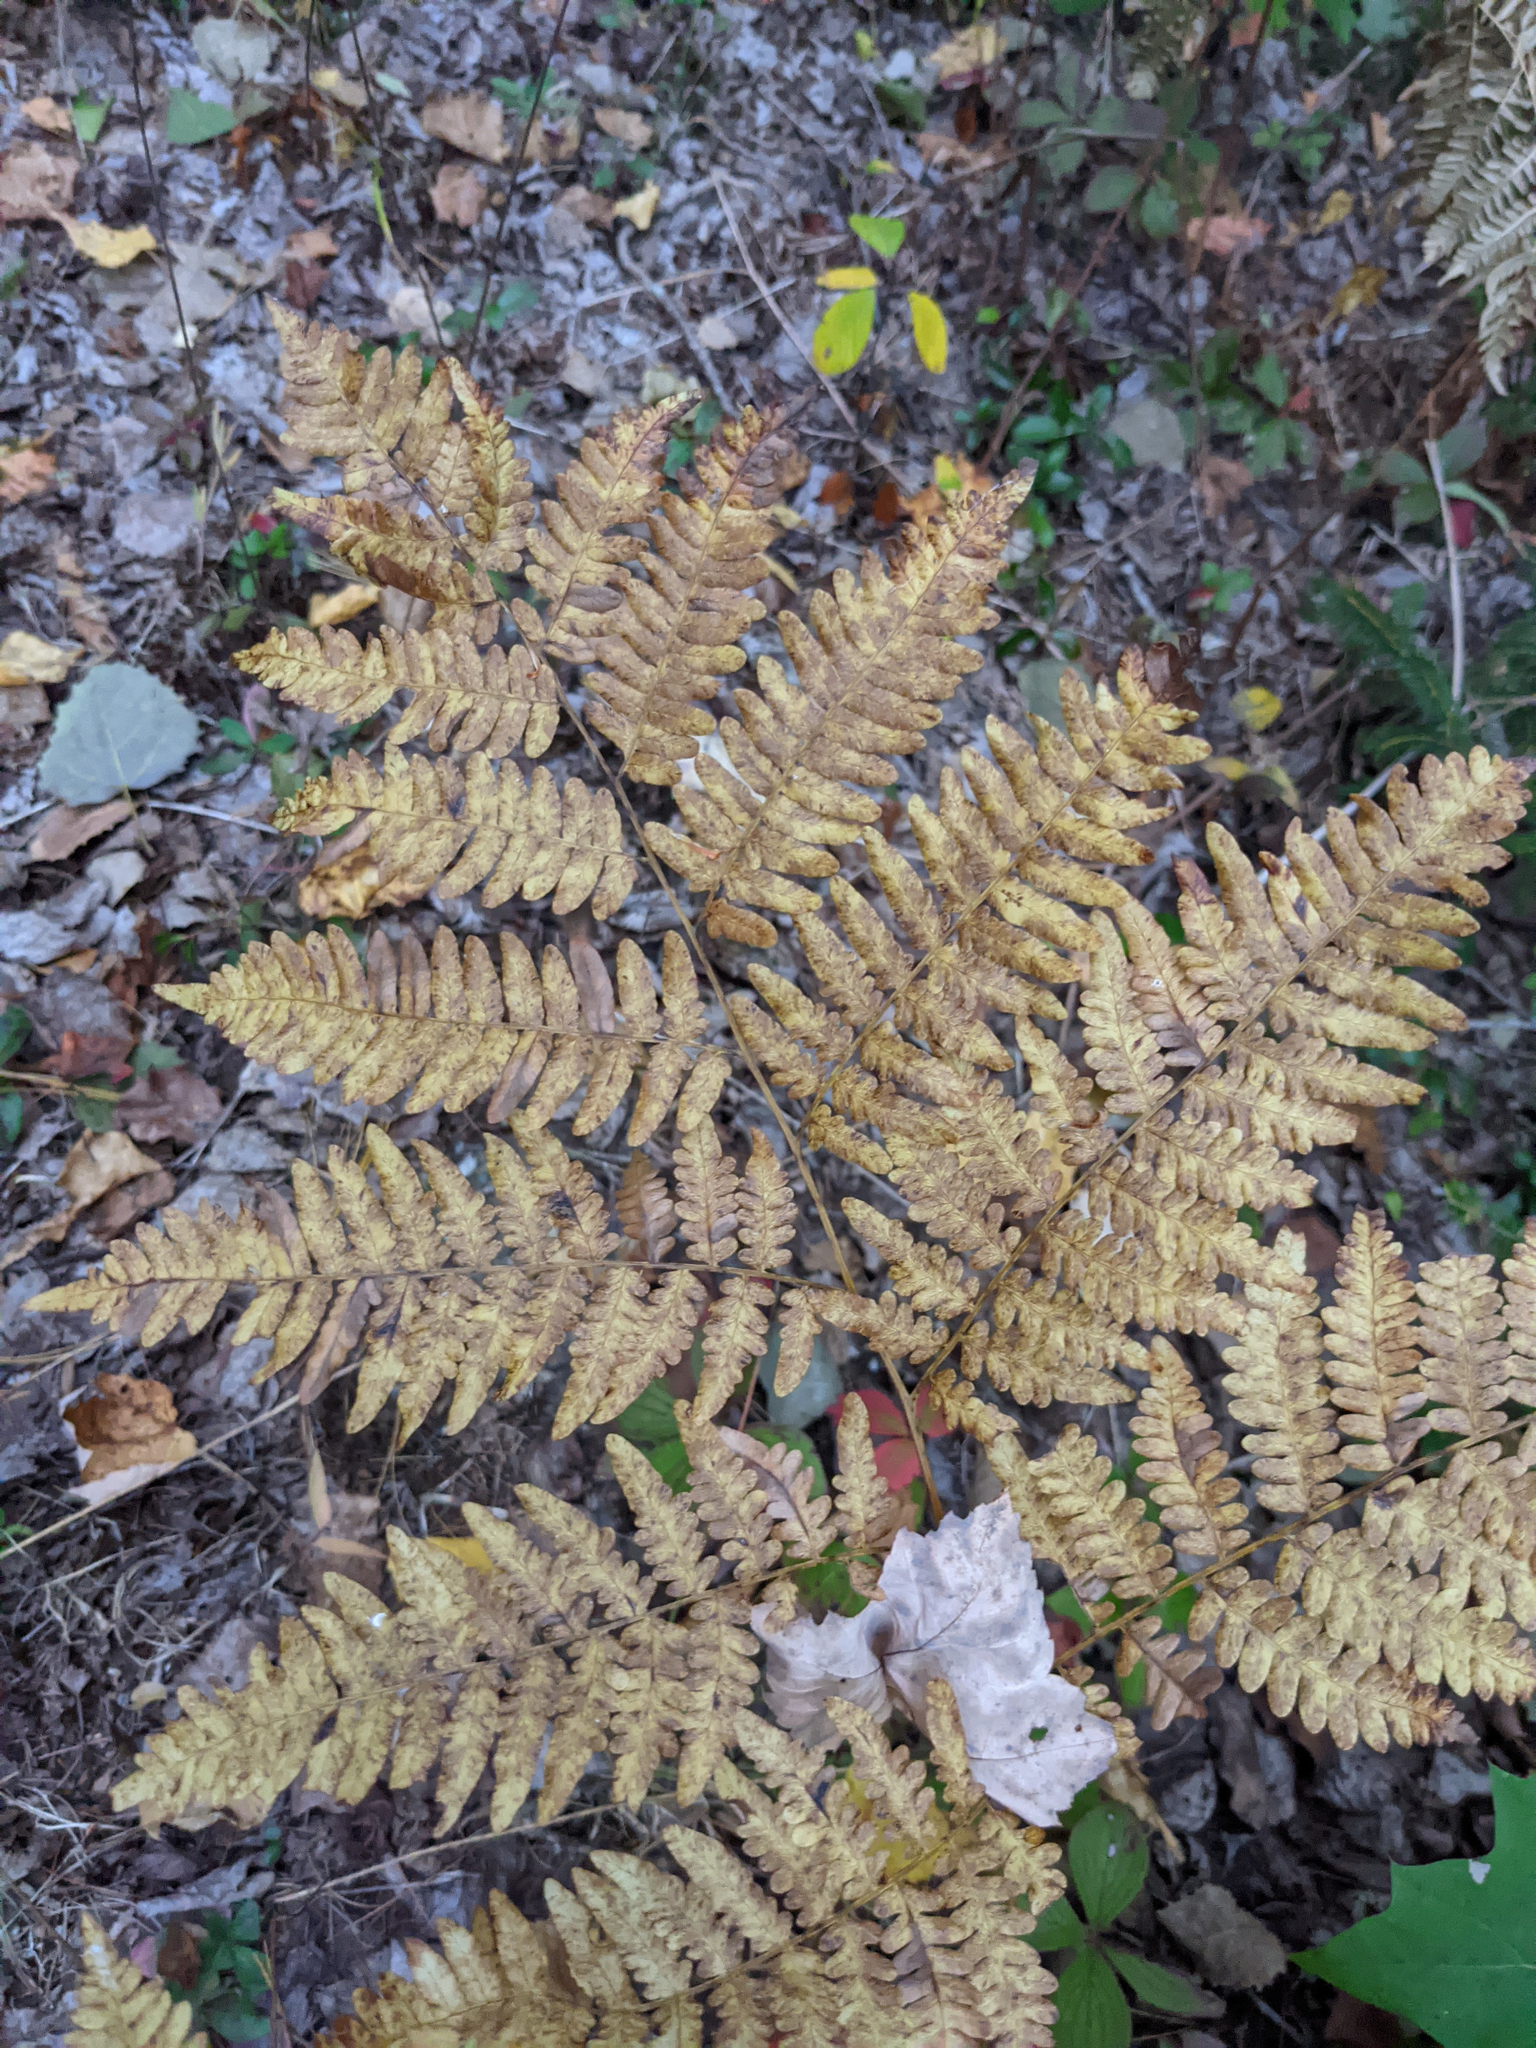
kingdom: Plantae
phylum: Tracheophyta
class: Polypodiopsida
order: Polypodiales
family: Dennstaedtiaceae
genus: Pteridium
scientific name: Pteridium aquilinum
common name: Bracken
